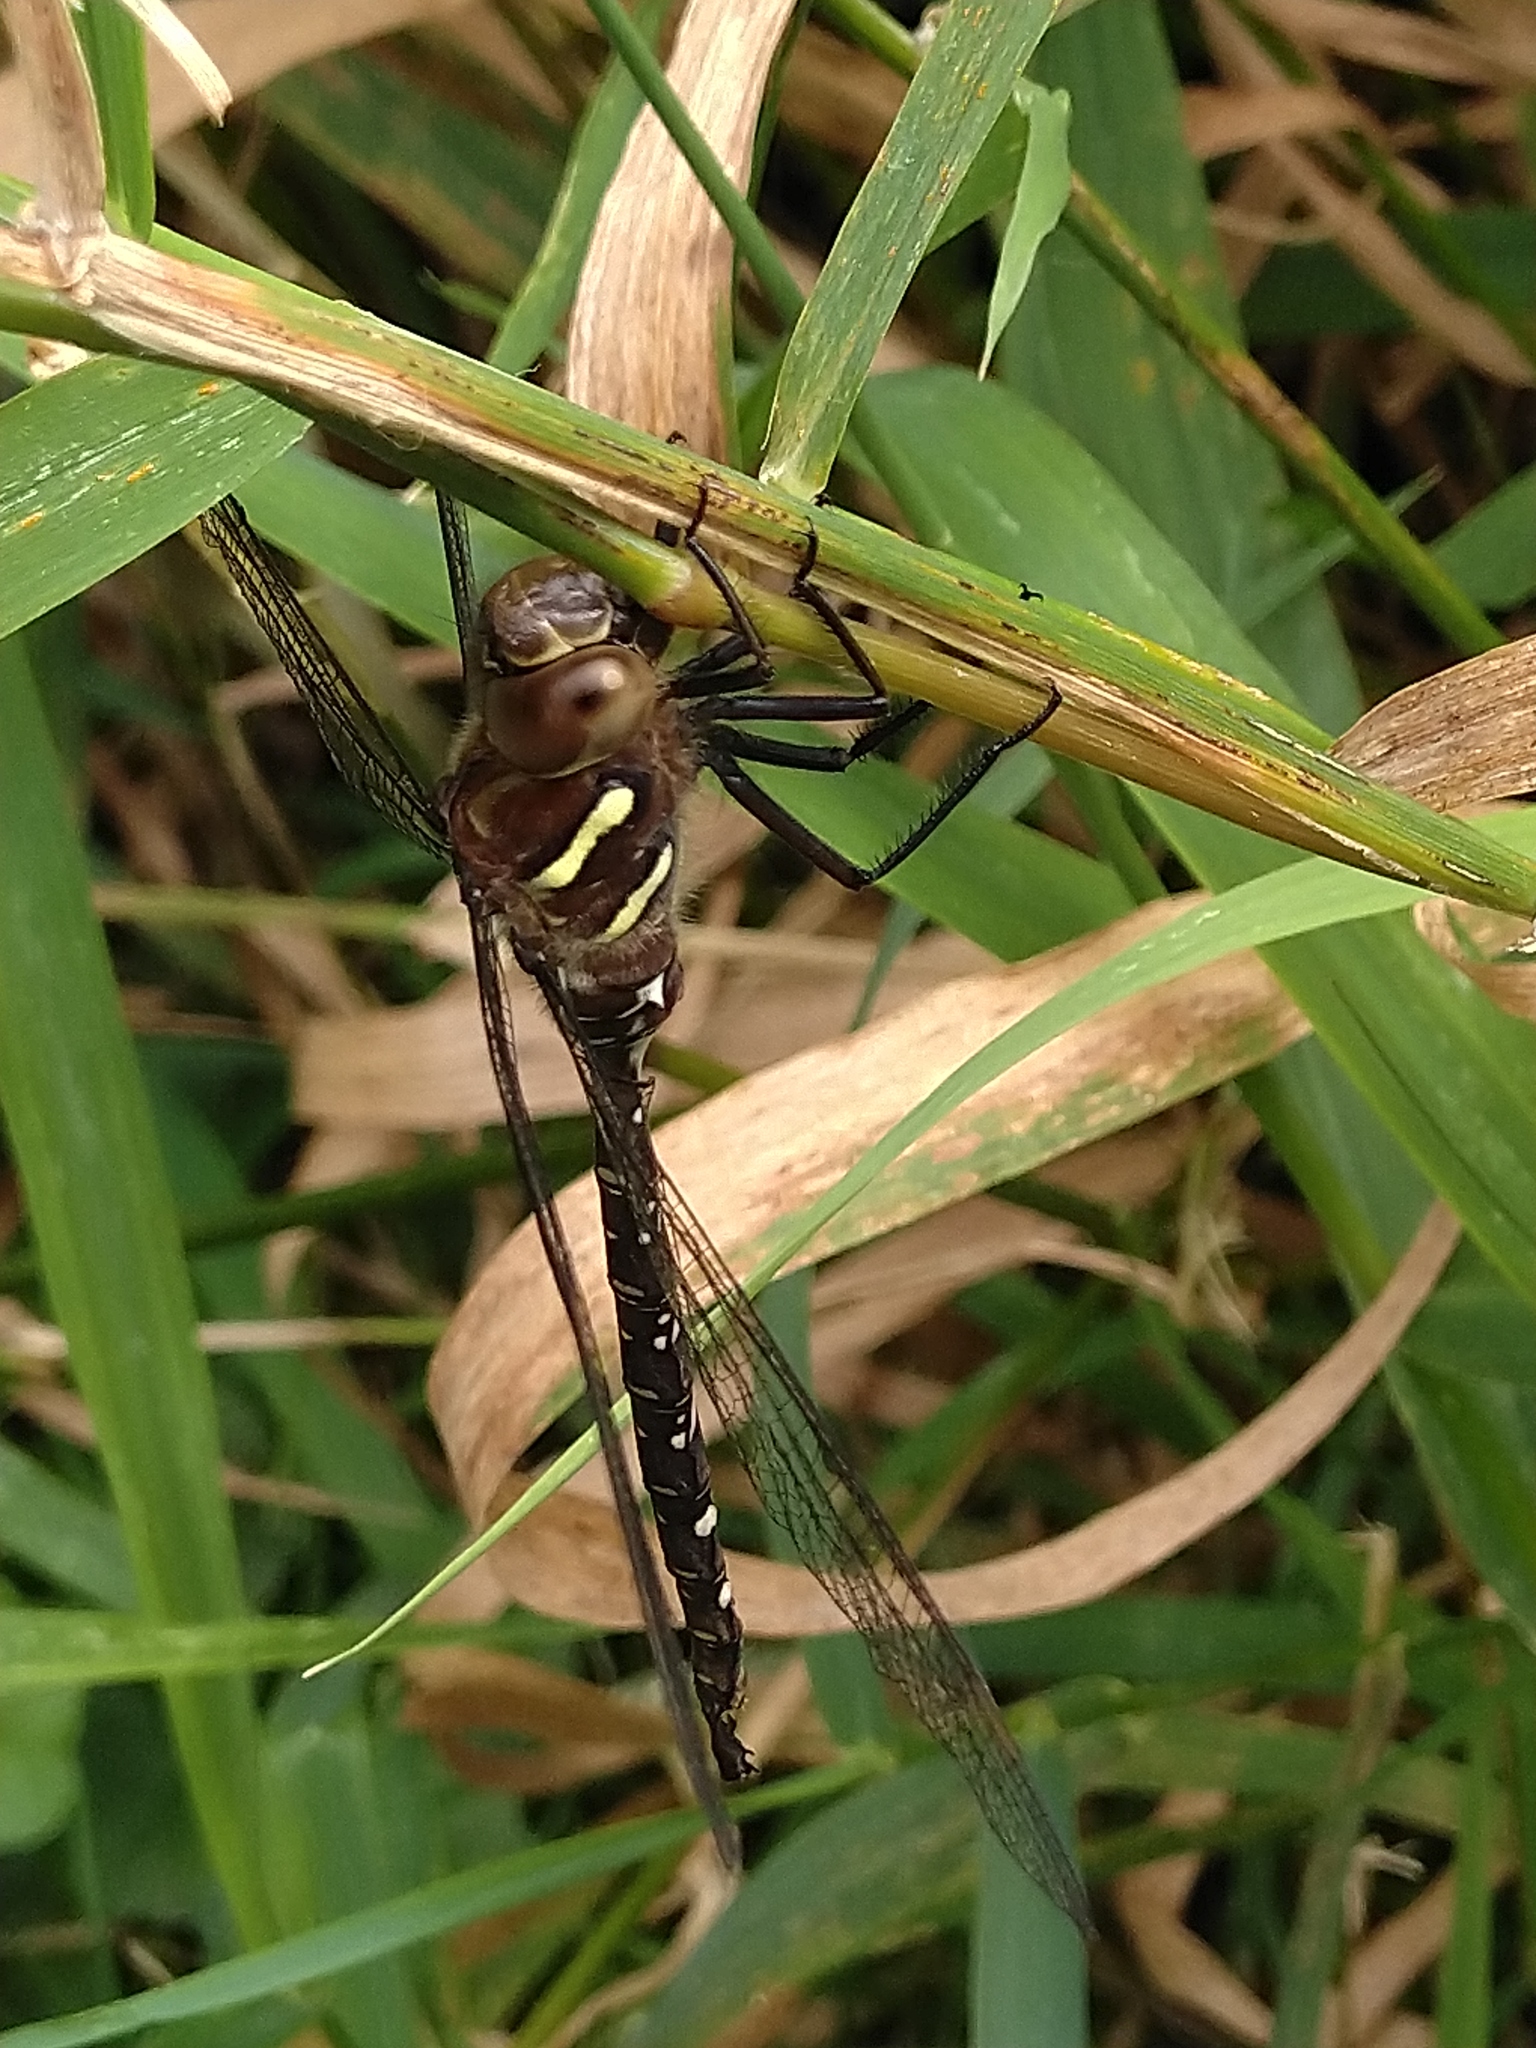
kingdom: Animalia
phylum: Arthropoda
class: Insecta
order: Odonata
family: Aeshnidae
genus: Aeshna
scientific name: Aeshna umbrosa
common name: Shadow darner
